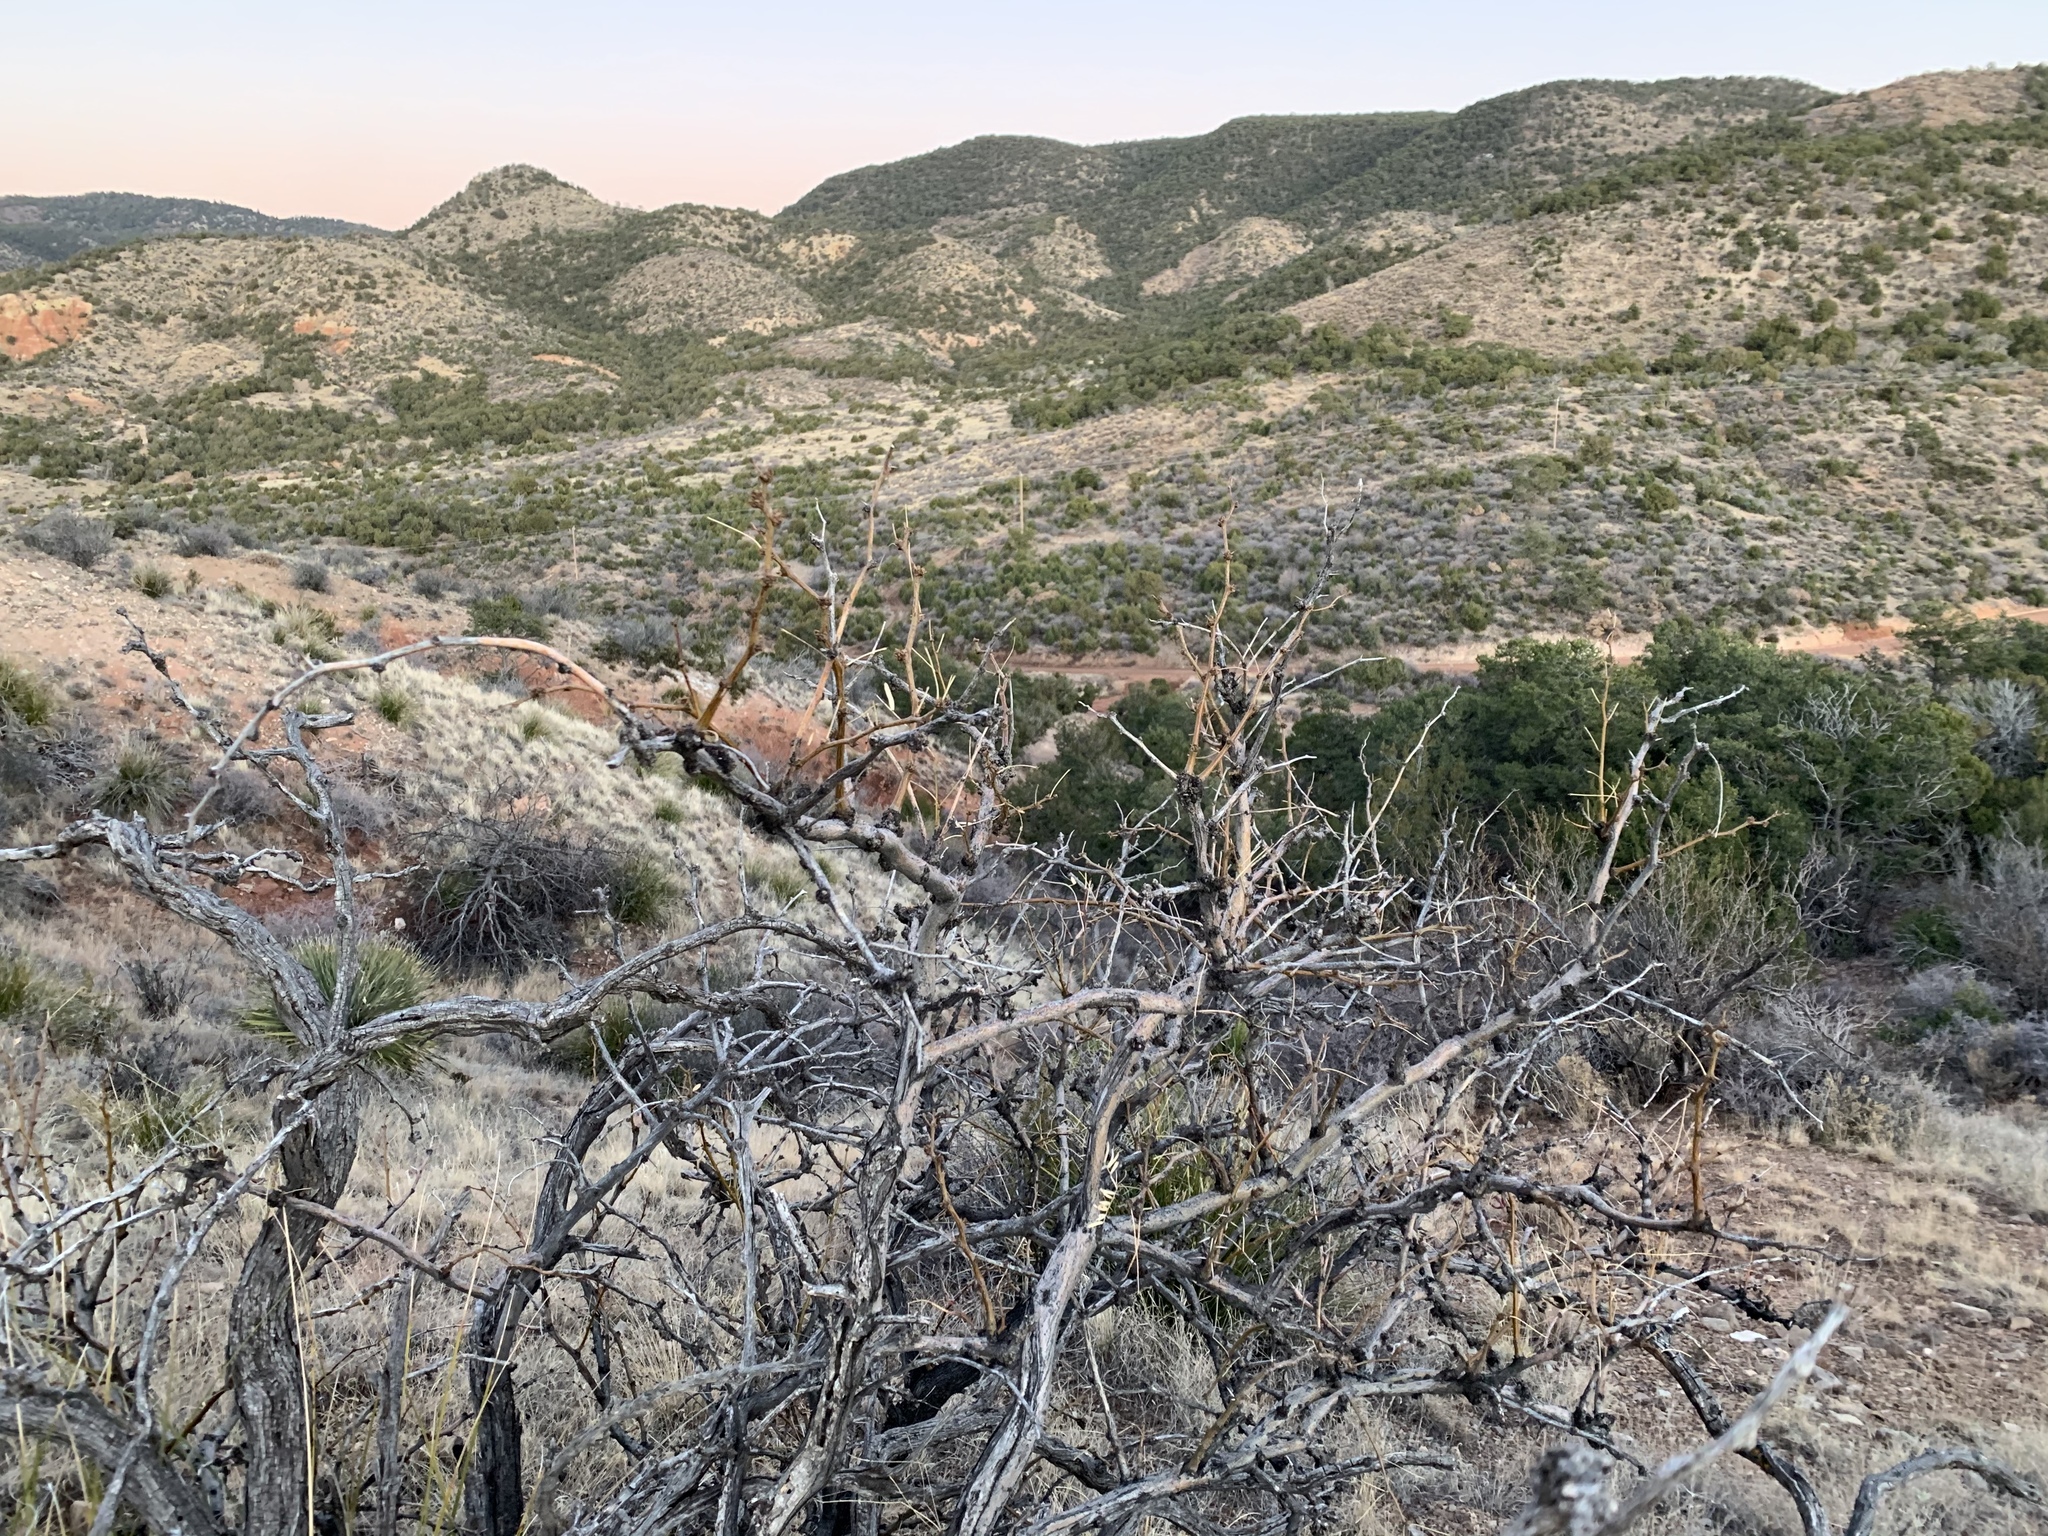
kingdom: Plantae
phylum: Tracheophyta
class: Magnoliopsida
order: Fabales
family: Fabaceae
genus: Prosopis
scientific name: Prosopis glandulosa
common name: Honey mesquite
